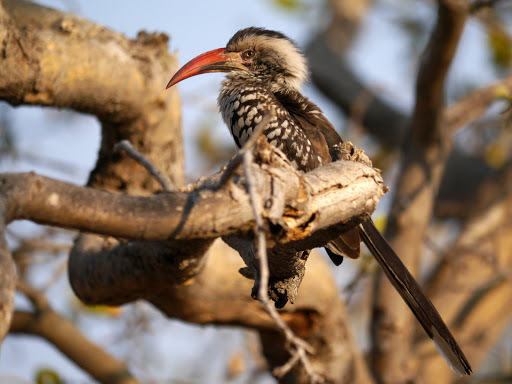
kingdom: Animalia
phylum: Chordata
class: Aves
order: Bucerotiformes
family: Bucerotidae
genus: Tockus
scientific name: Tockus rufirostris
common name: Southern red-billed hornbill
